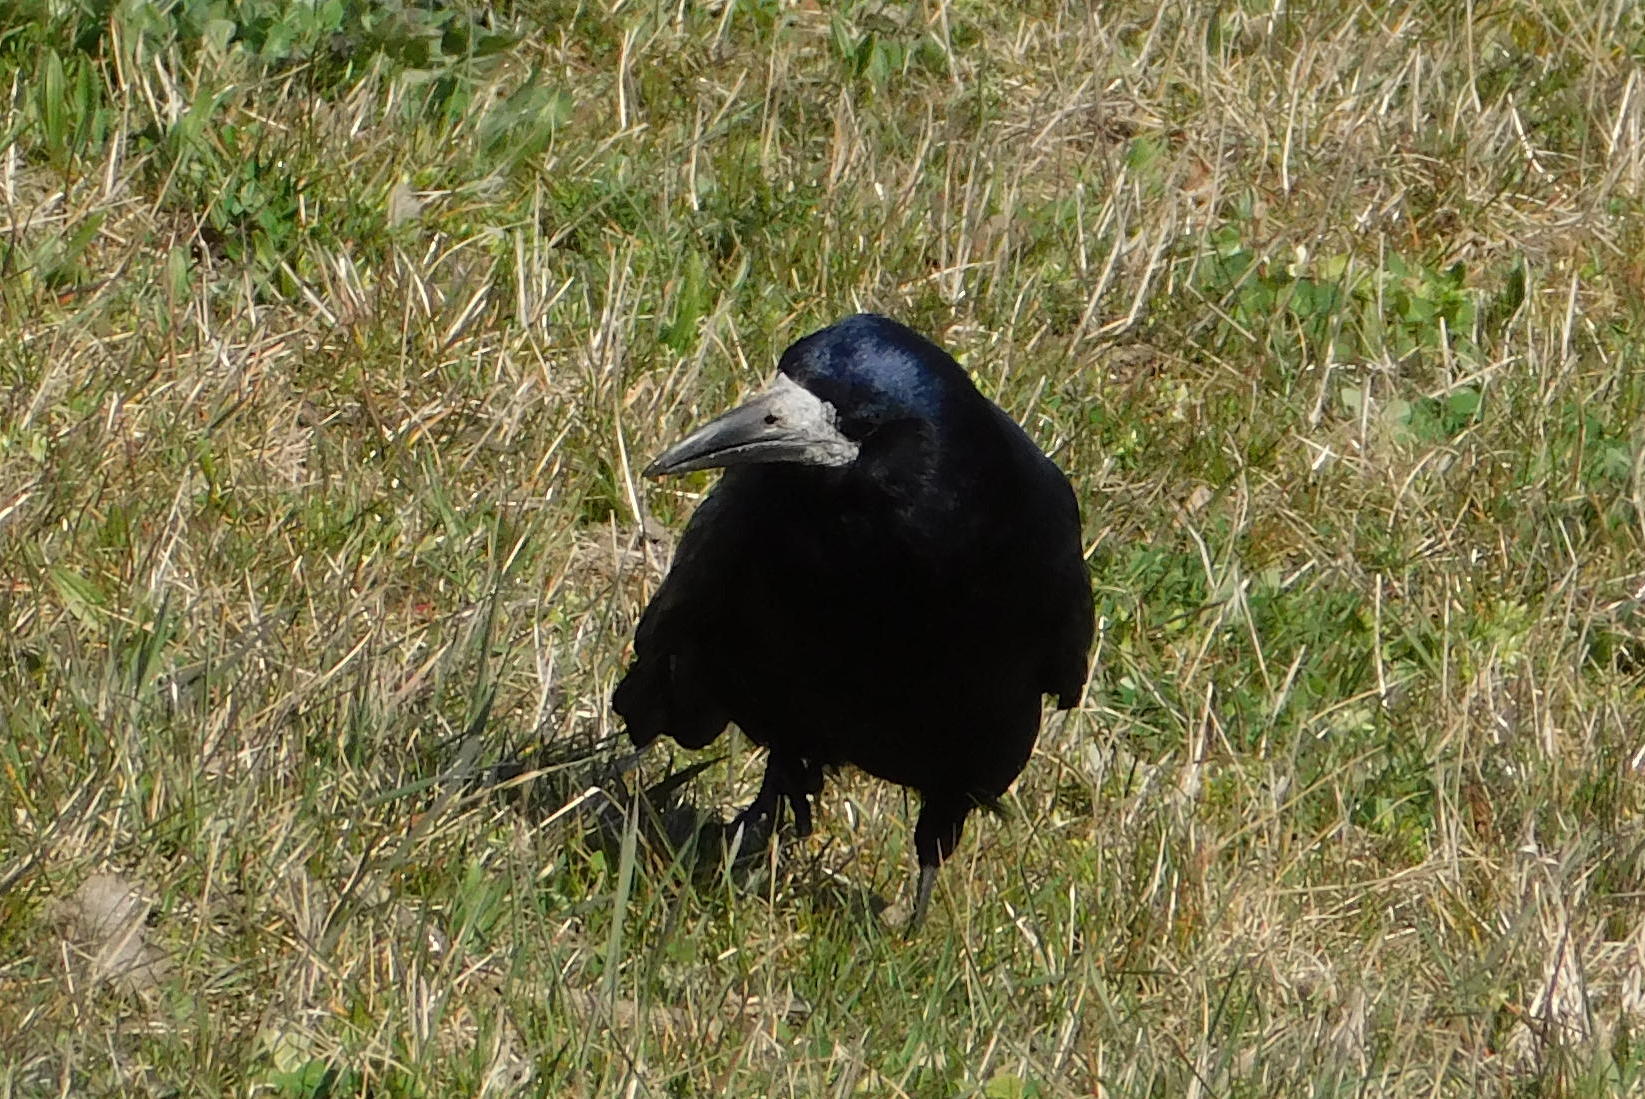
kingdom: Animalia
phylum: Chordata
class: Aves
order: Passeriformes
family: Corvidae
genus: Corvus
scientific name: Corvus frugilegus
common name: Rook
